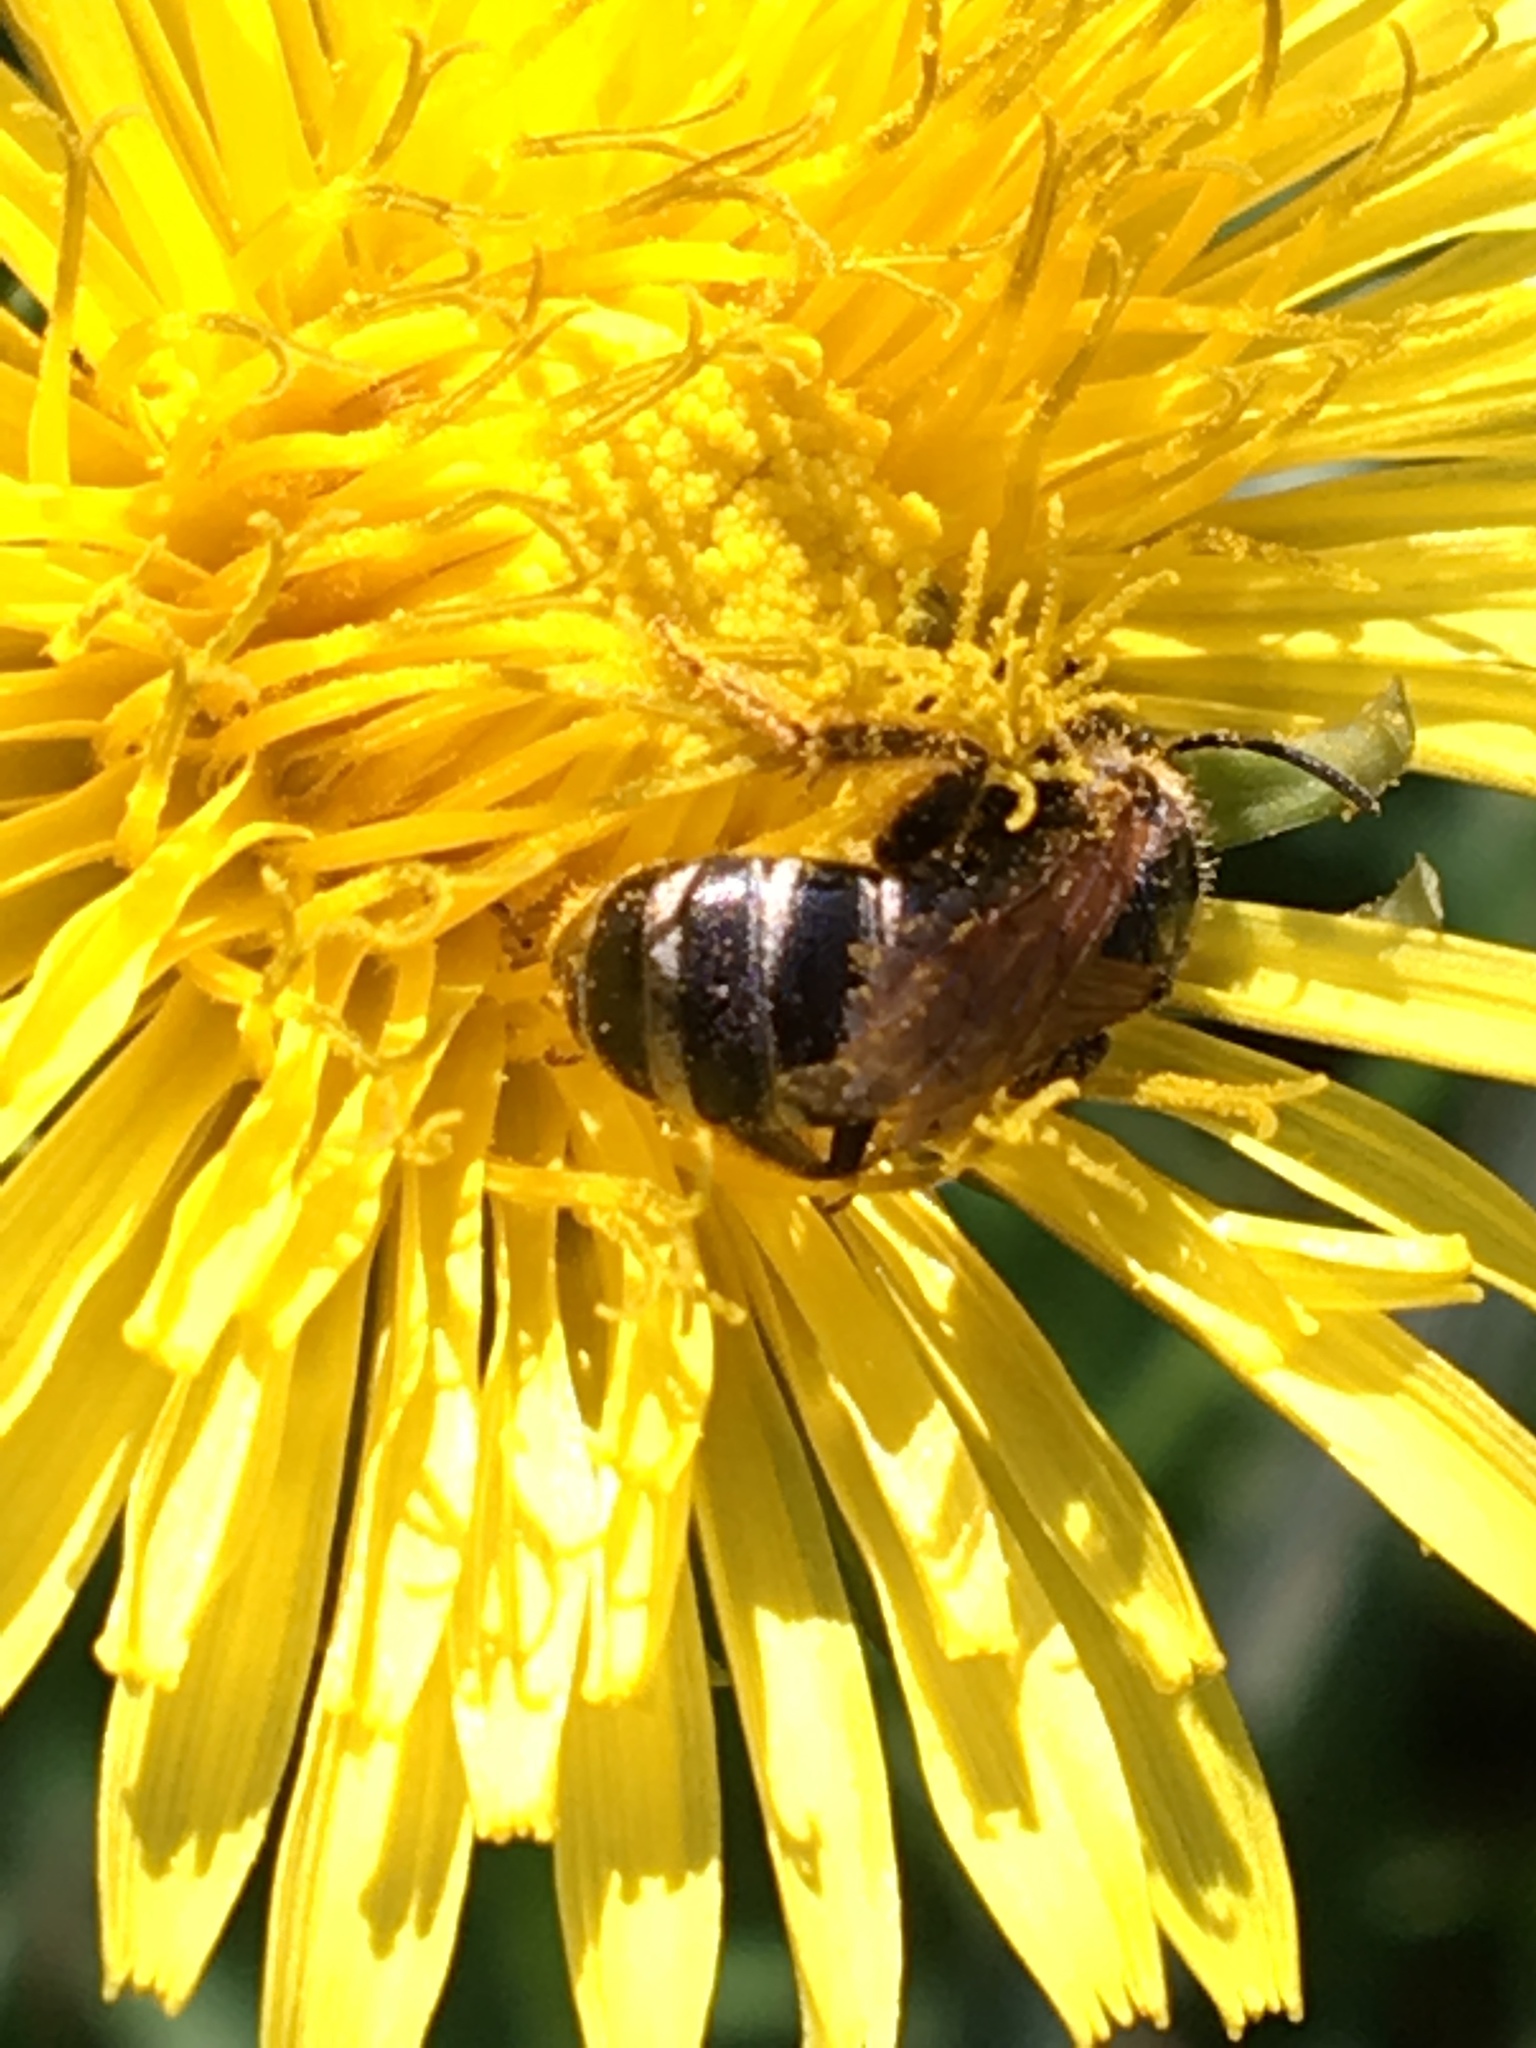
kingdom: Animalia
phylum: Arthropoda
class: Insecta
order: Hymenoptera
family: Halictidae
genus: Halictus
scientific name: Halictus ligatus
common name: Ligated furrow bee
